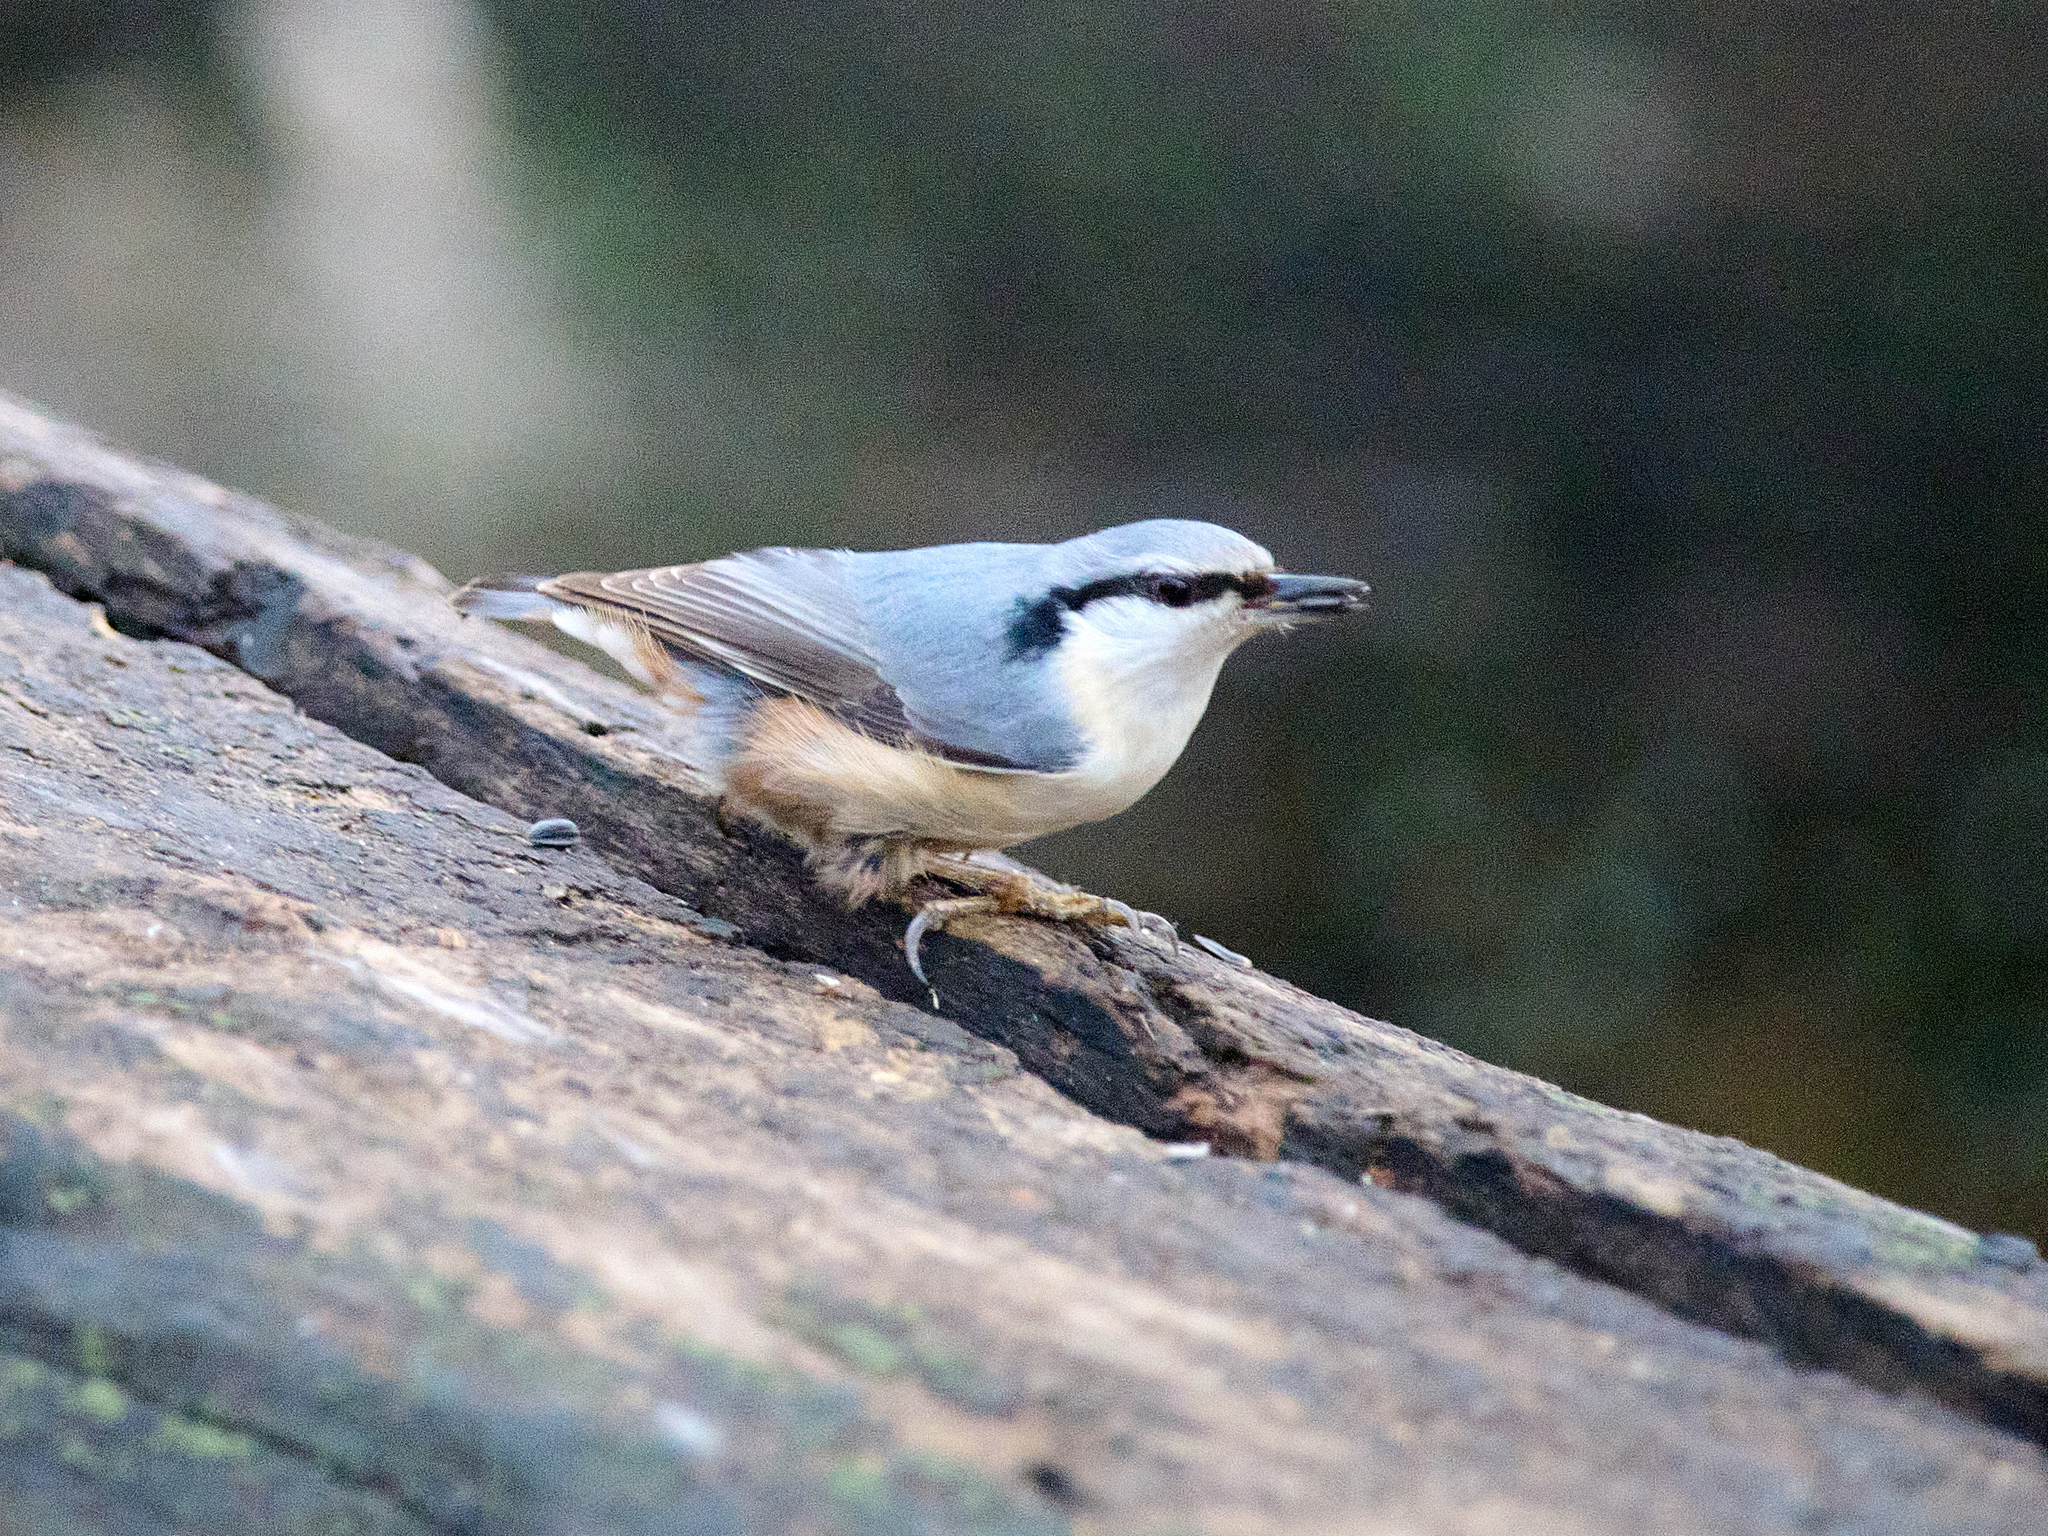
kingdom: Animalia
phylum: Chordata
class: Aves
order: Passeriformes
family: Sittidae
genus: Sitta
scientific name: Sitta europaea
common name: Eurasian nuthatch
